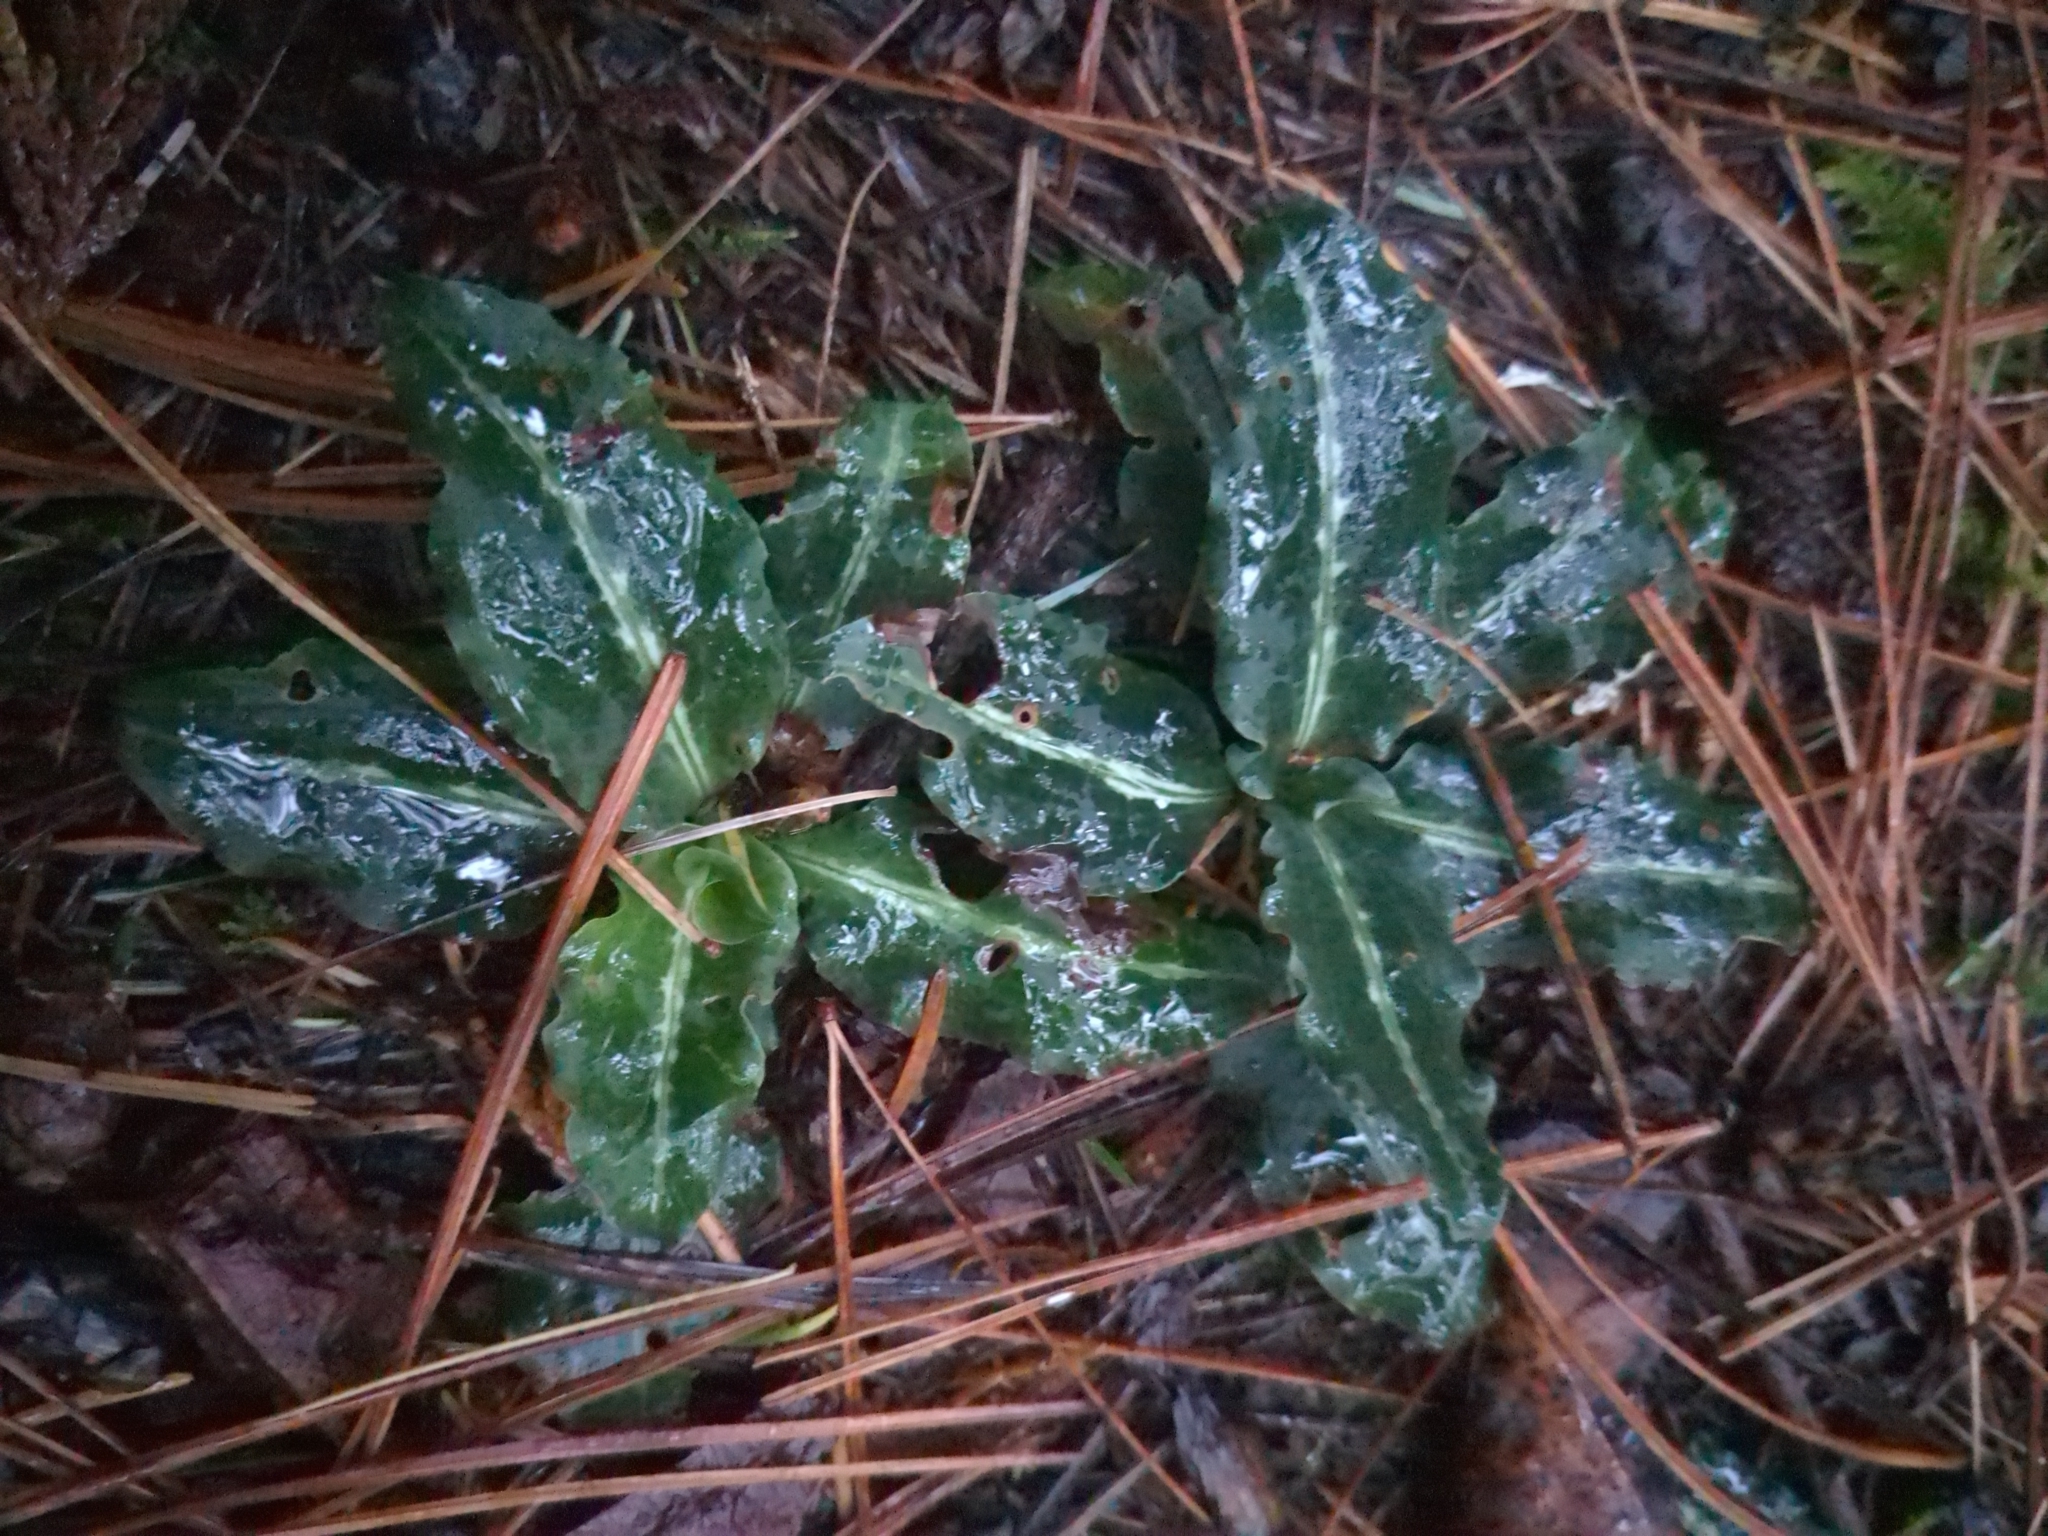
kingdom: Plantae
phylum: Tracheophyta
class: Liliopsida
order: Asparagales
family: Orchidaceae
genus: Goodyera
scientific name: Goodyera oblongifolia
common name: Giant rattlesnake-plantain
